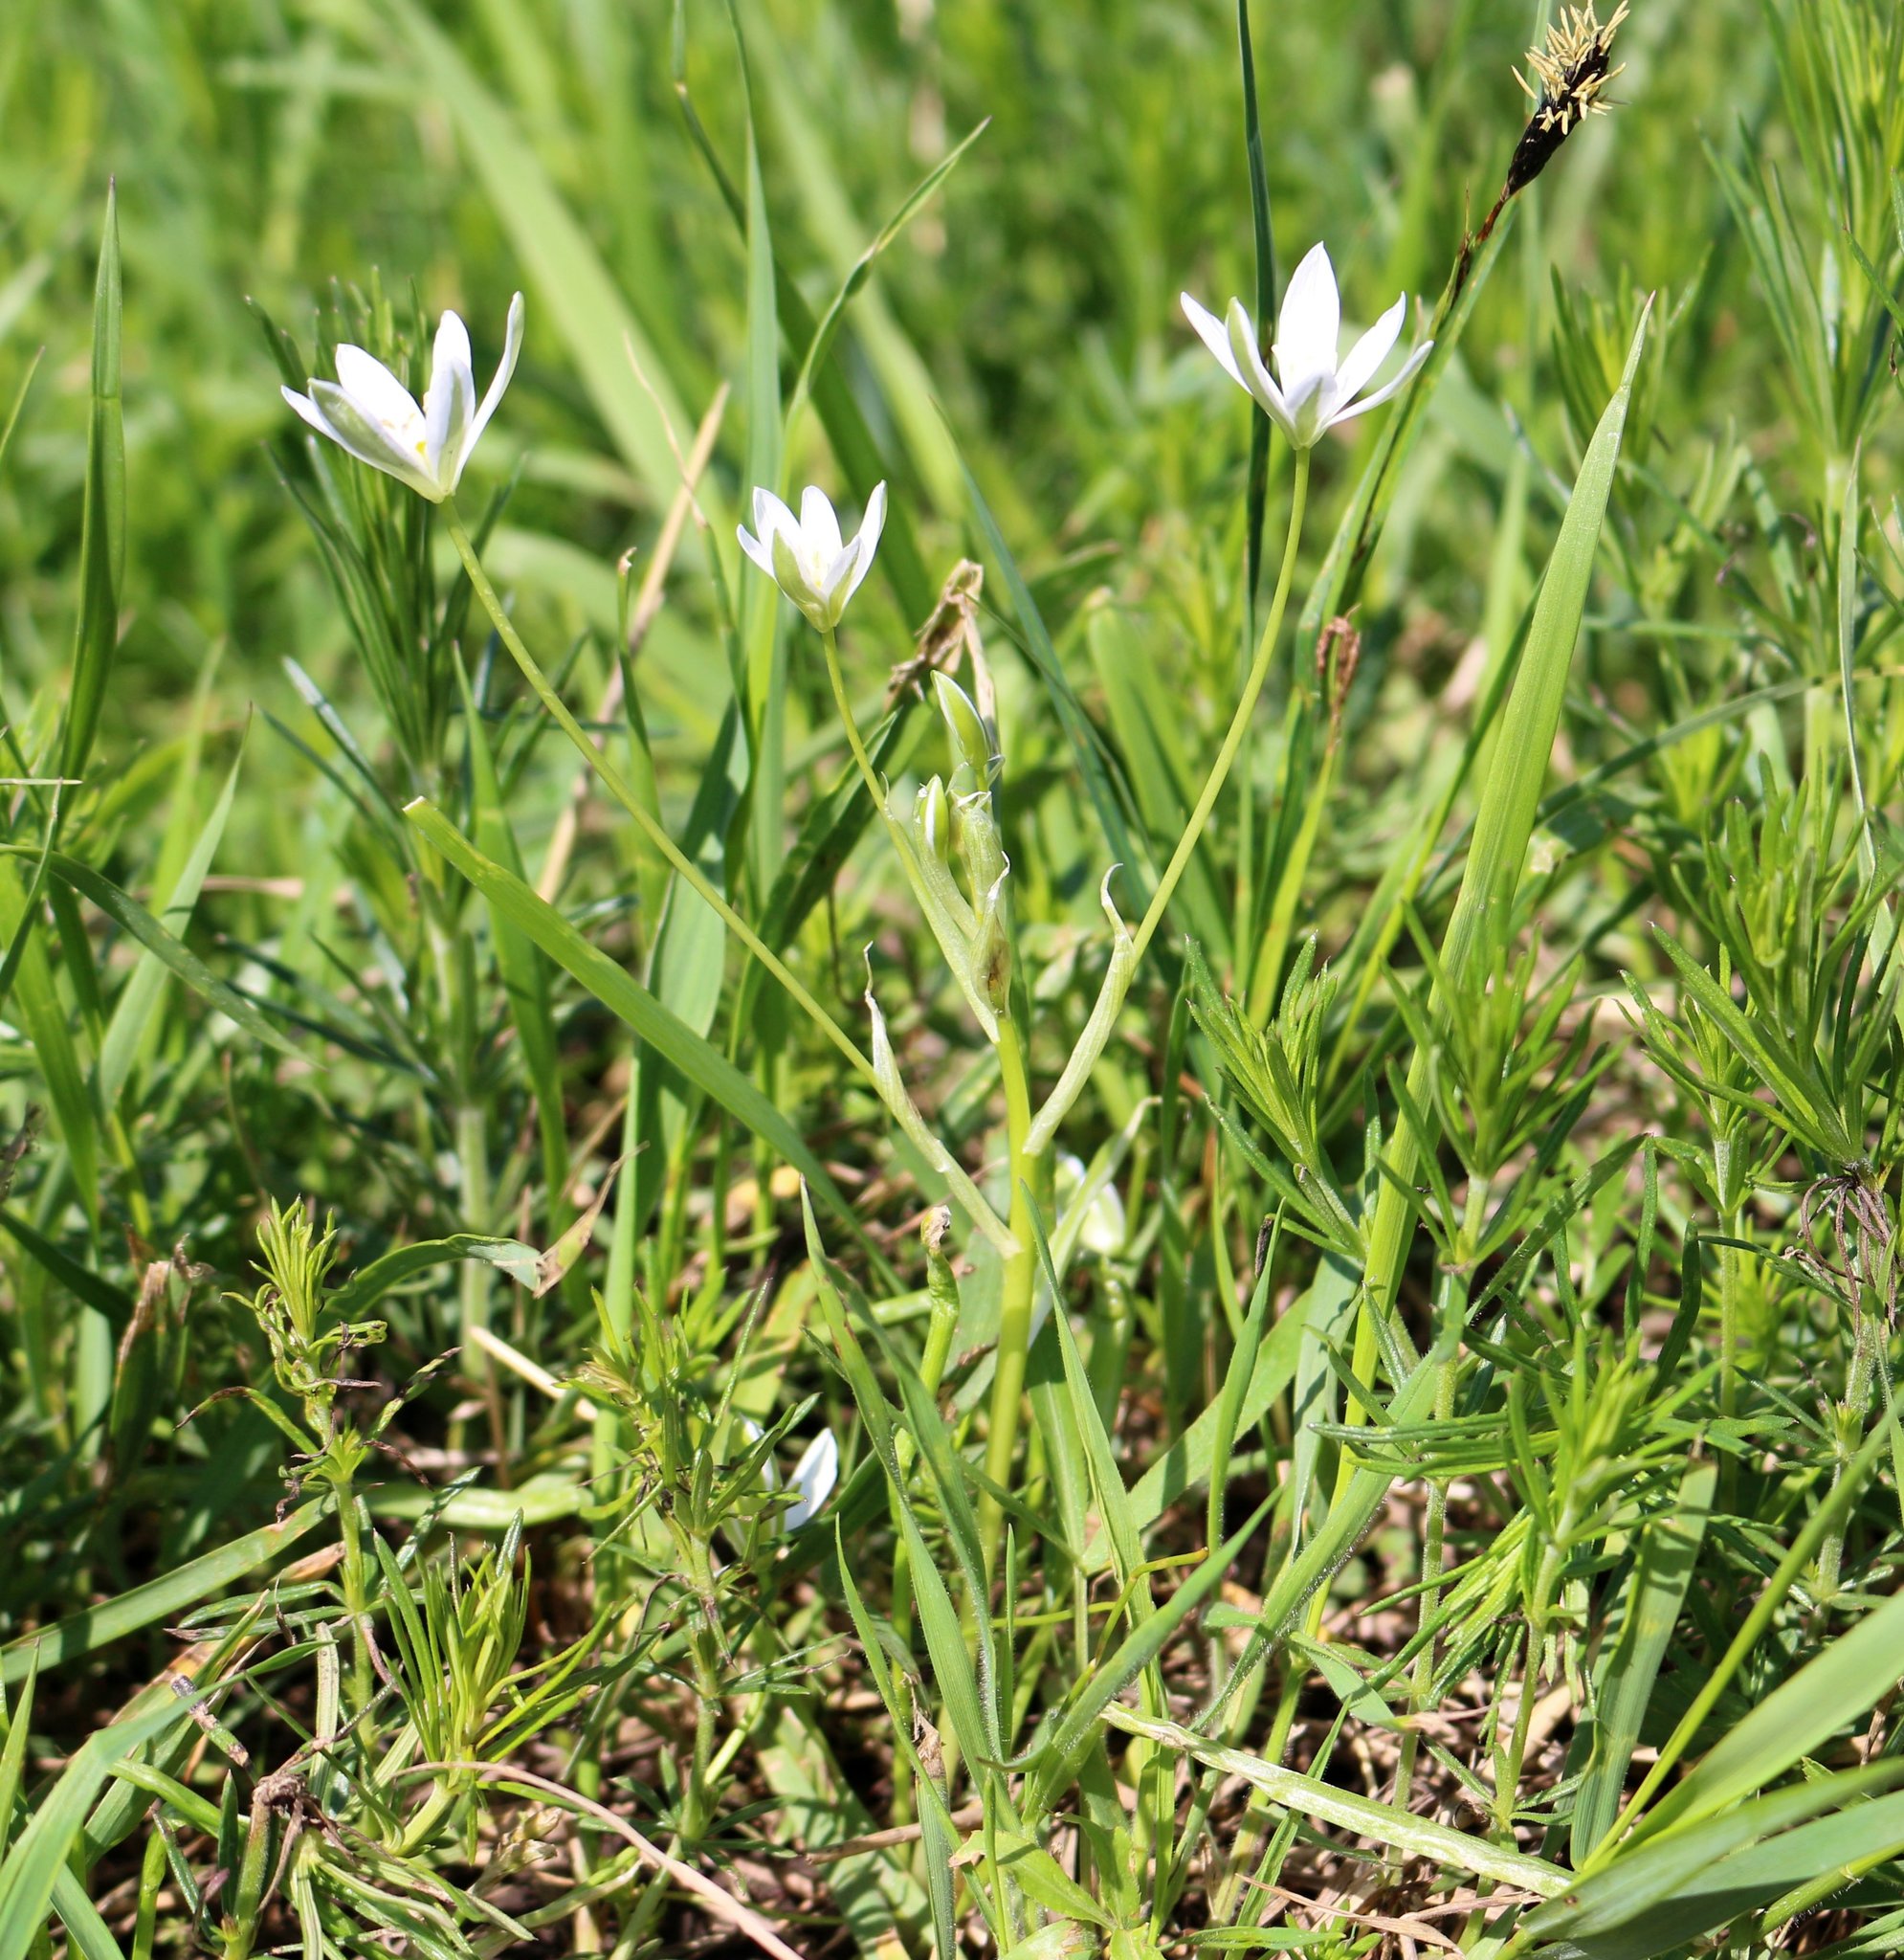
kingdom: Plantae
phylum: Tracheophyta
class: Liliopsida
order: Asparagales
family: Asparagaceae
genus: Ornithogalum
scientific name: Ornithogalum woronowii
